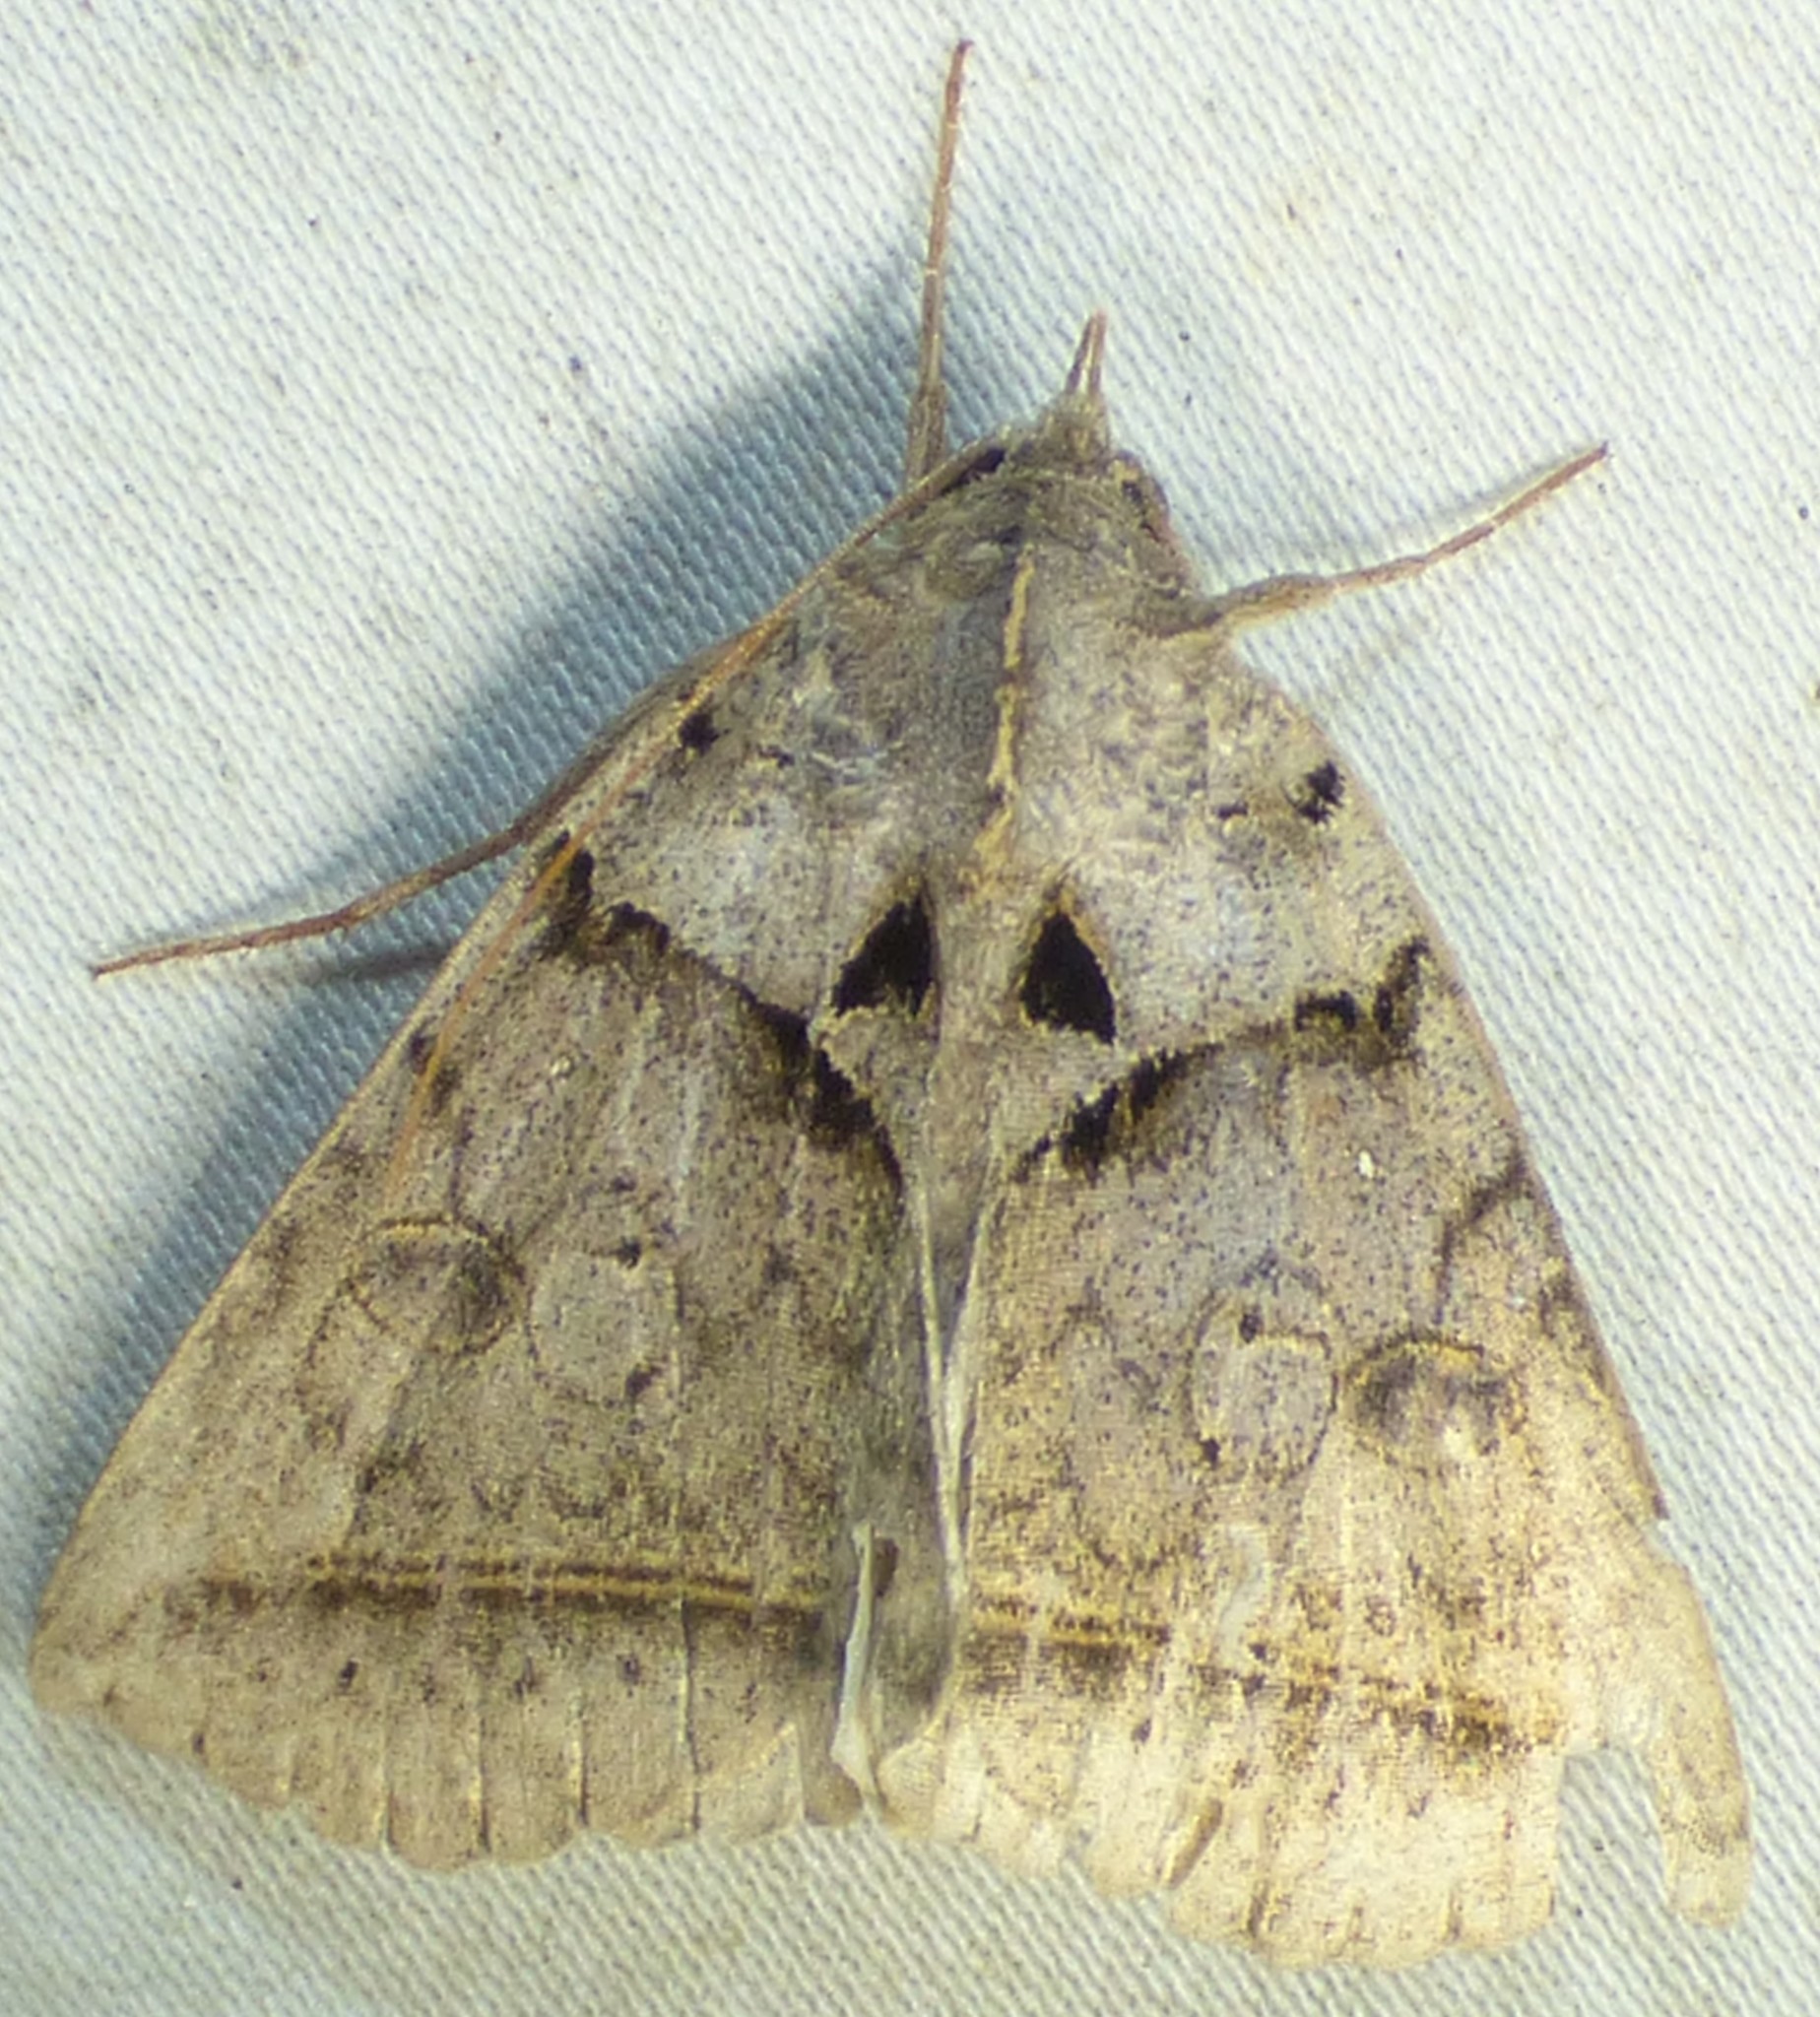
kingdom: Animalia
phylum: Arthropoda
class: Insecta
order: Lepidoptera
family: Erebidae
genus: Celiptera
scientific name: Celiptera frustulum
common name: Black bit moth
